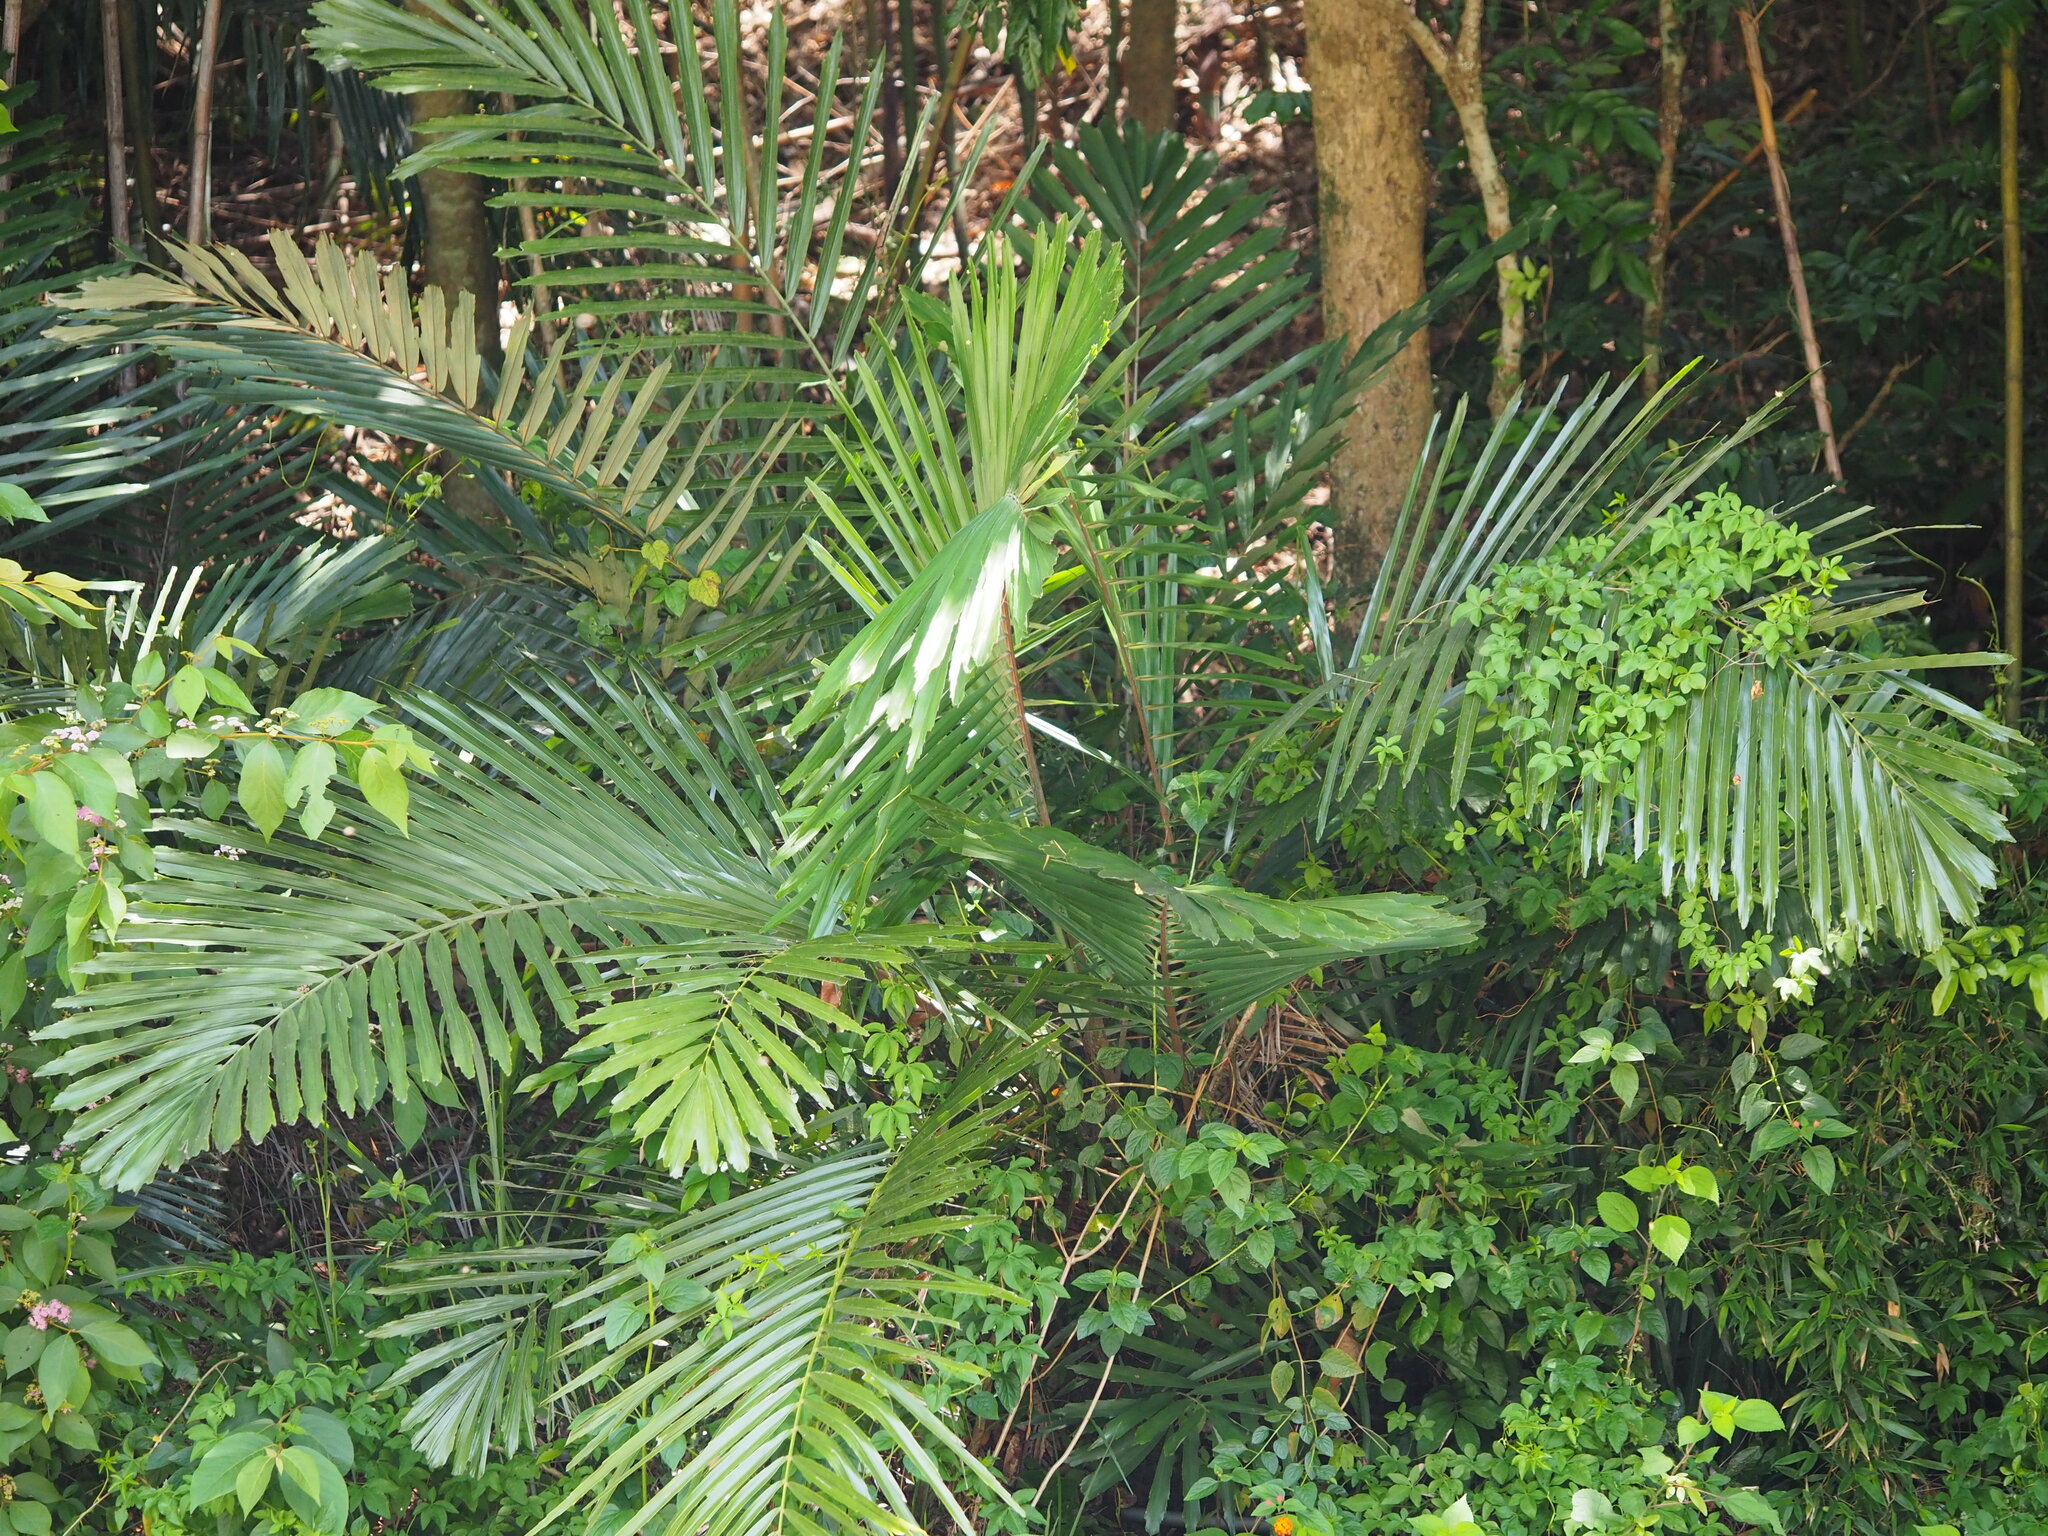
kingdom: Plantae
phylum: Tracheophyta
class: Liliopsida
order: Arecales
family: Arecaceae
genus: Arenga
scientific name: Arenga engleri
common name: Formosan sugar palm
